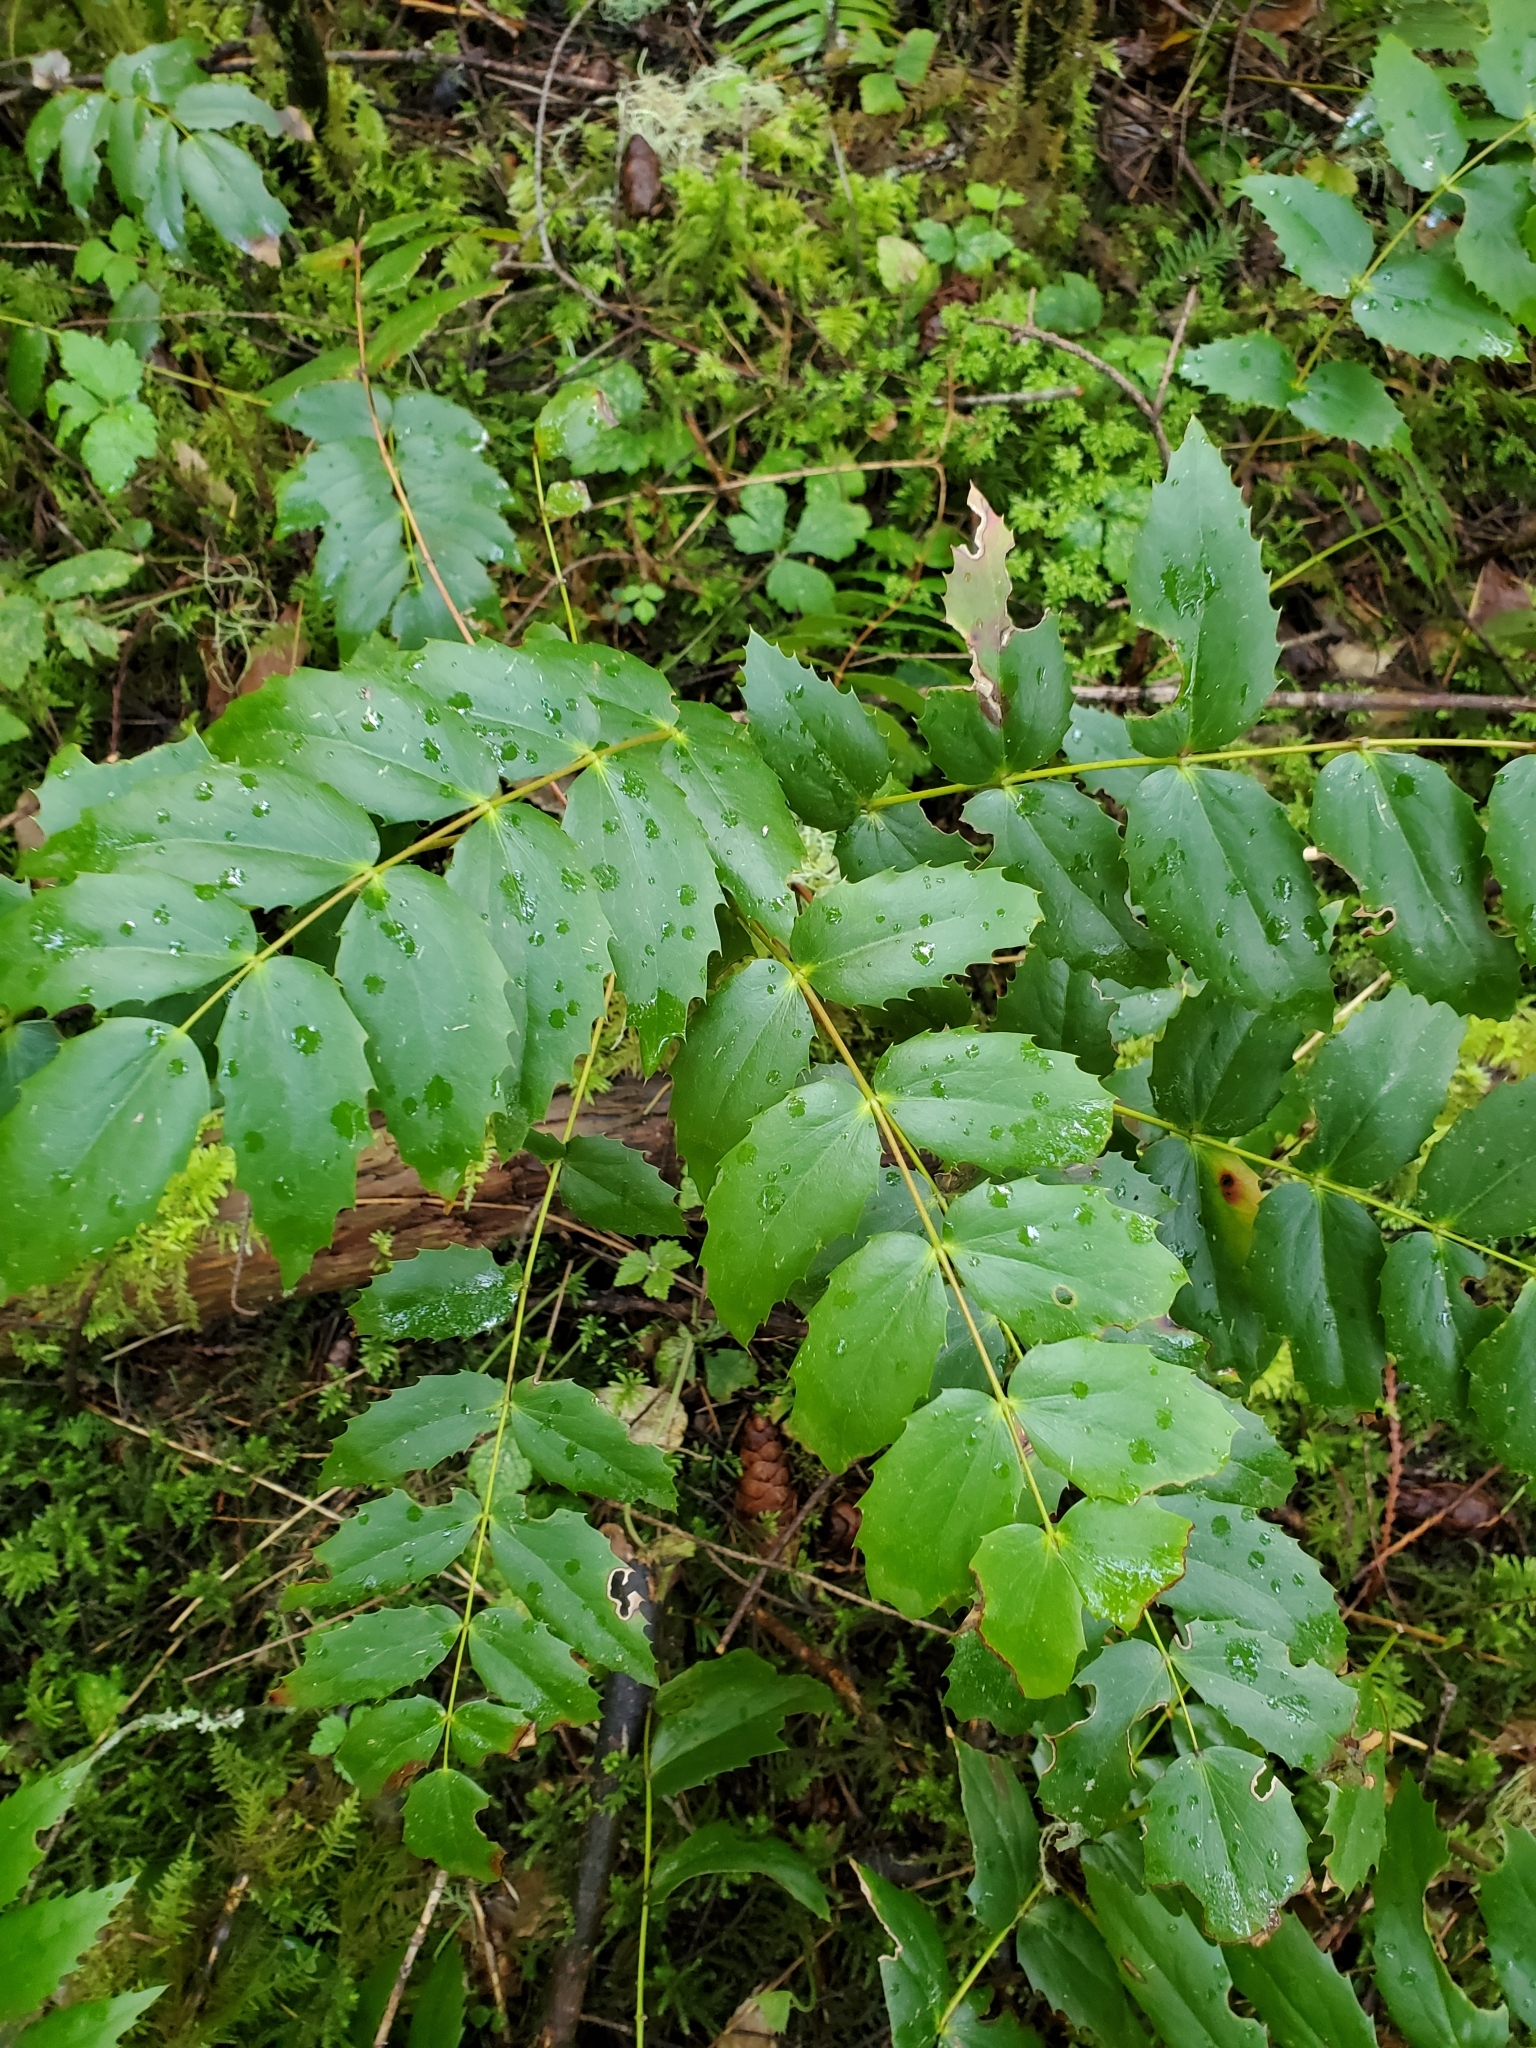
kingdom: Plantae
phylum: Tracheophyta
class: Magnoliopsida
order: Ranunculales
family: Berberidaceae
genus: Mahonia
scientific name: Mahonia nervosa
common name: Cascade oregon-grape
